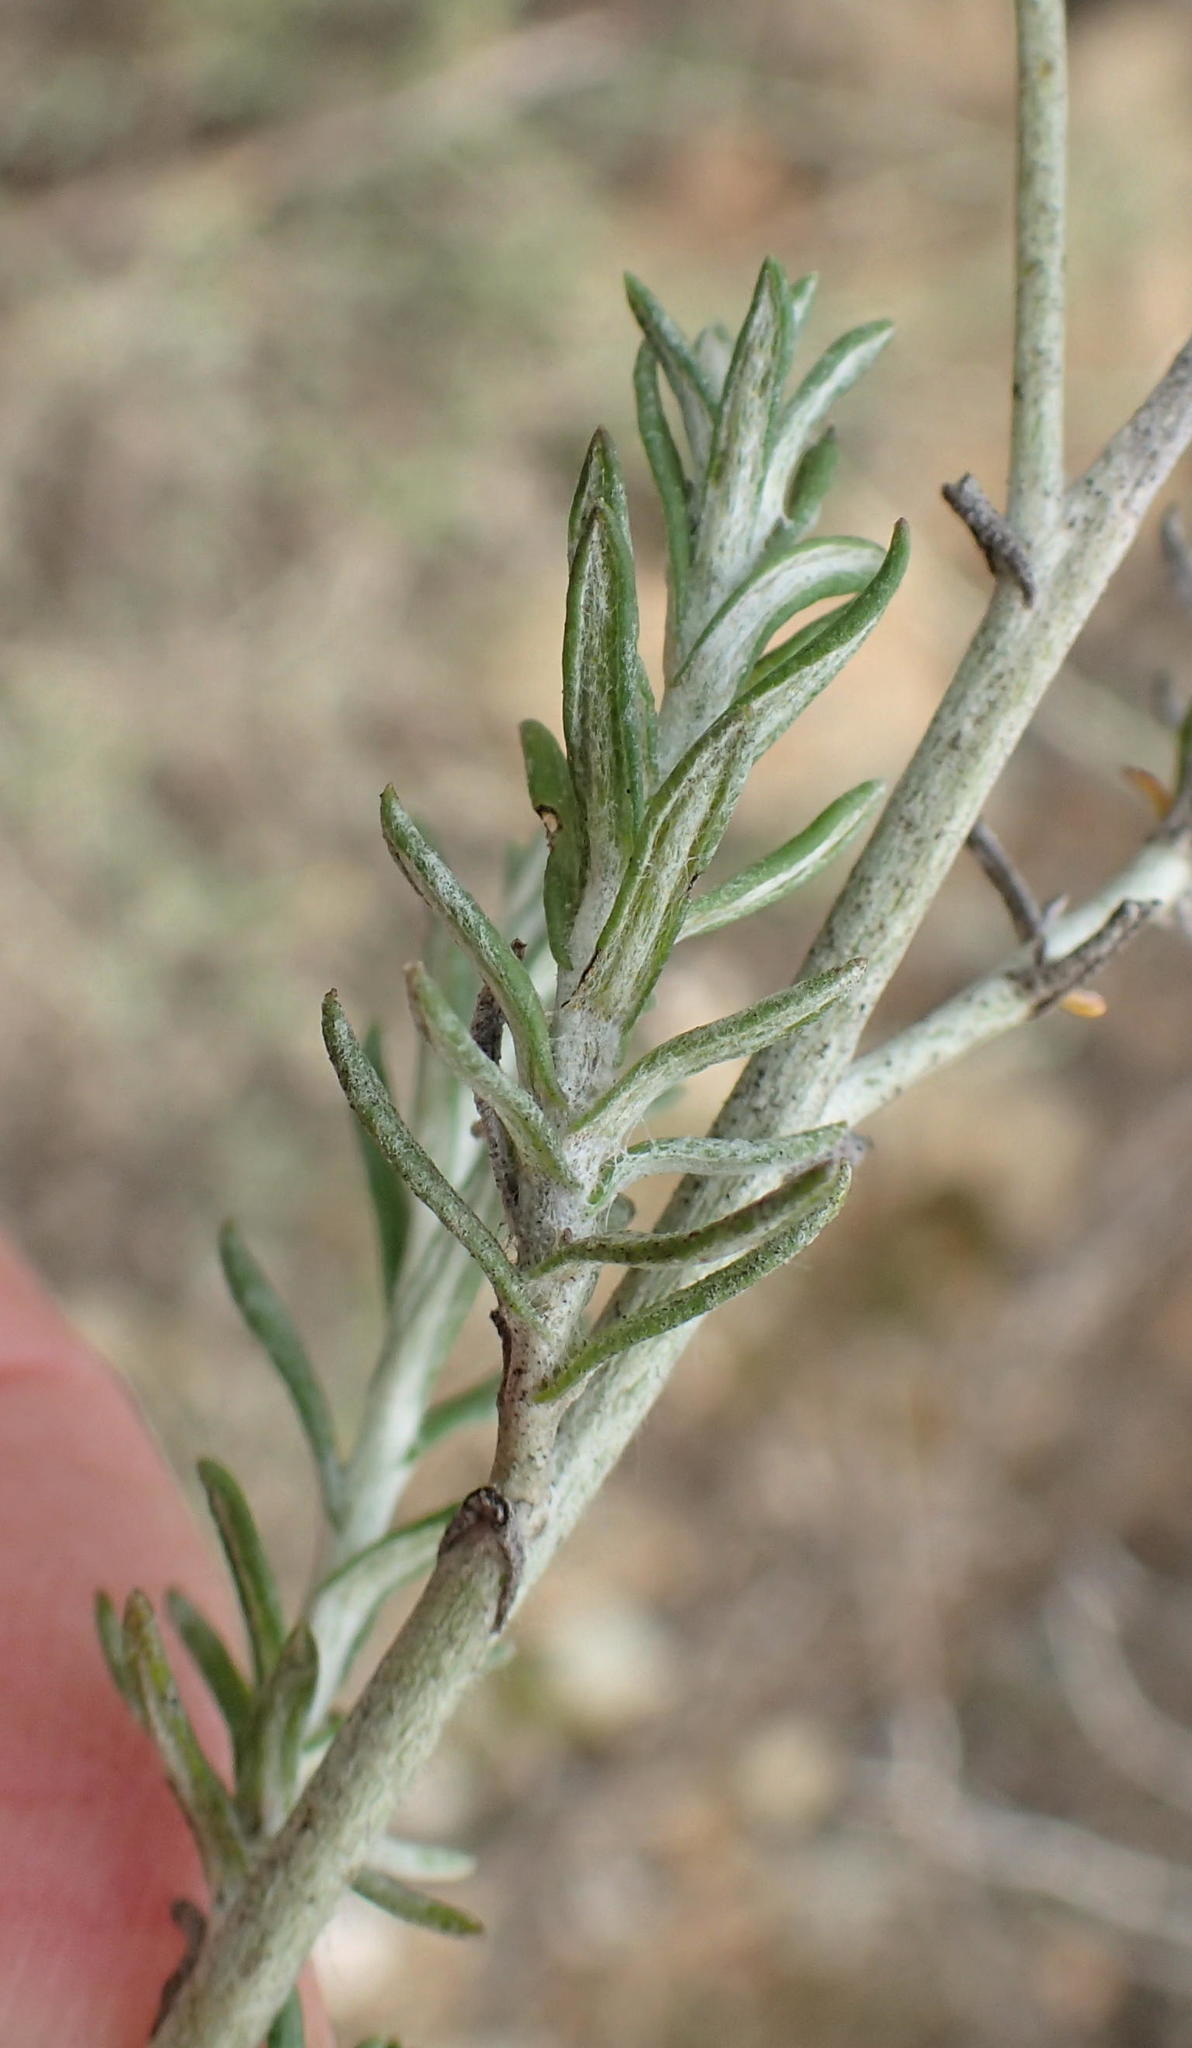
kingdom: Plantae
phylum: Tracheophyta
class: Magnoliopsida
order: Asterales
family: Asteraceae
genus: Helichrysum
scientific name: Helichrysum rosum
